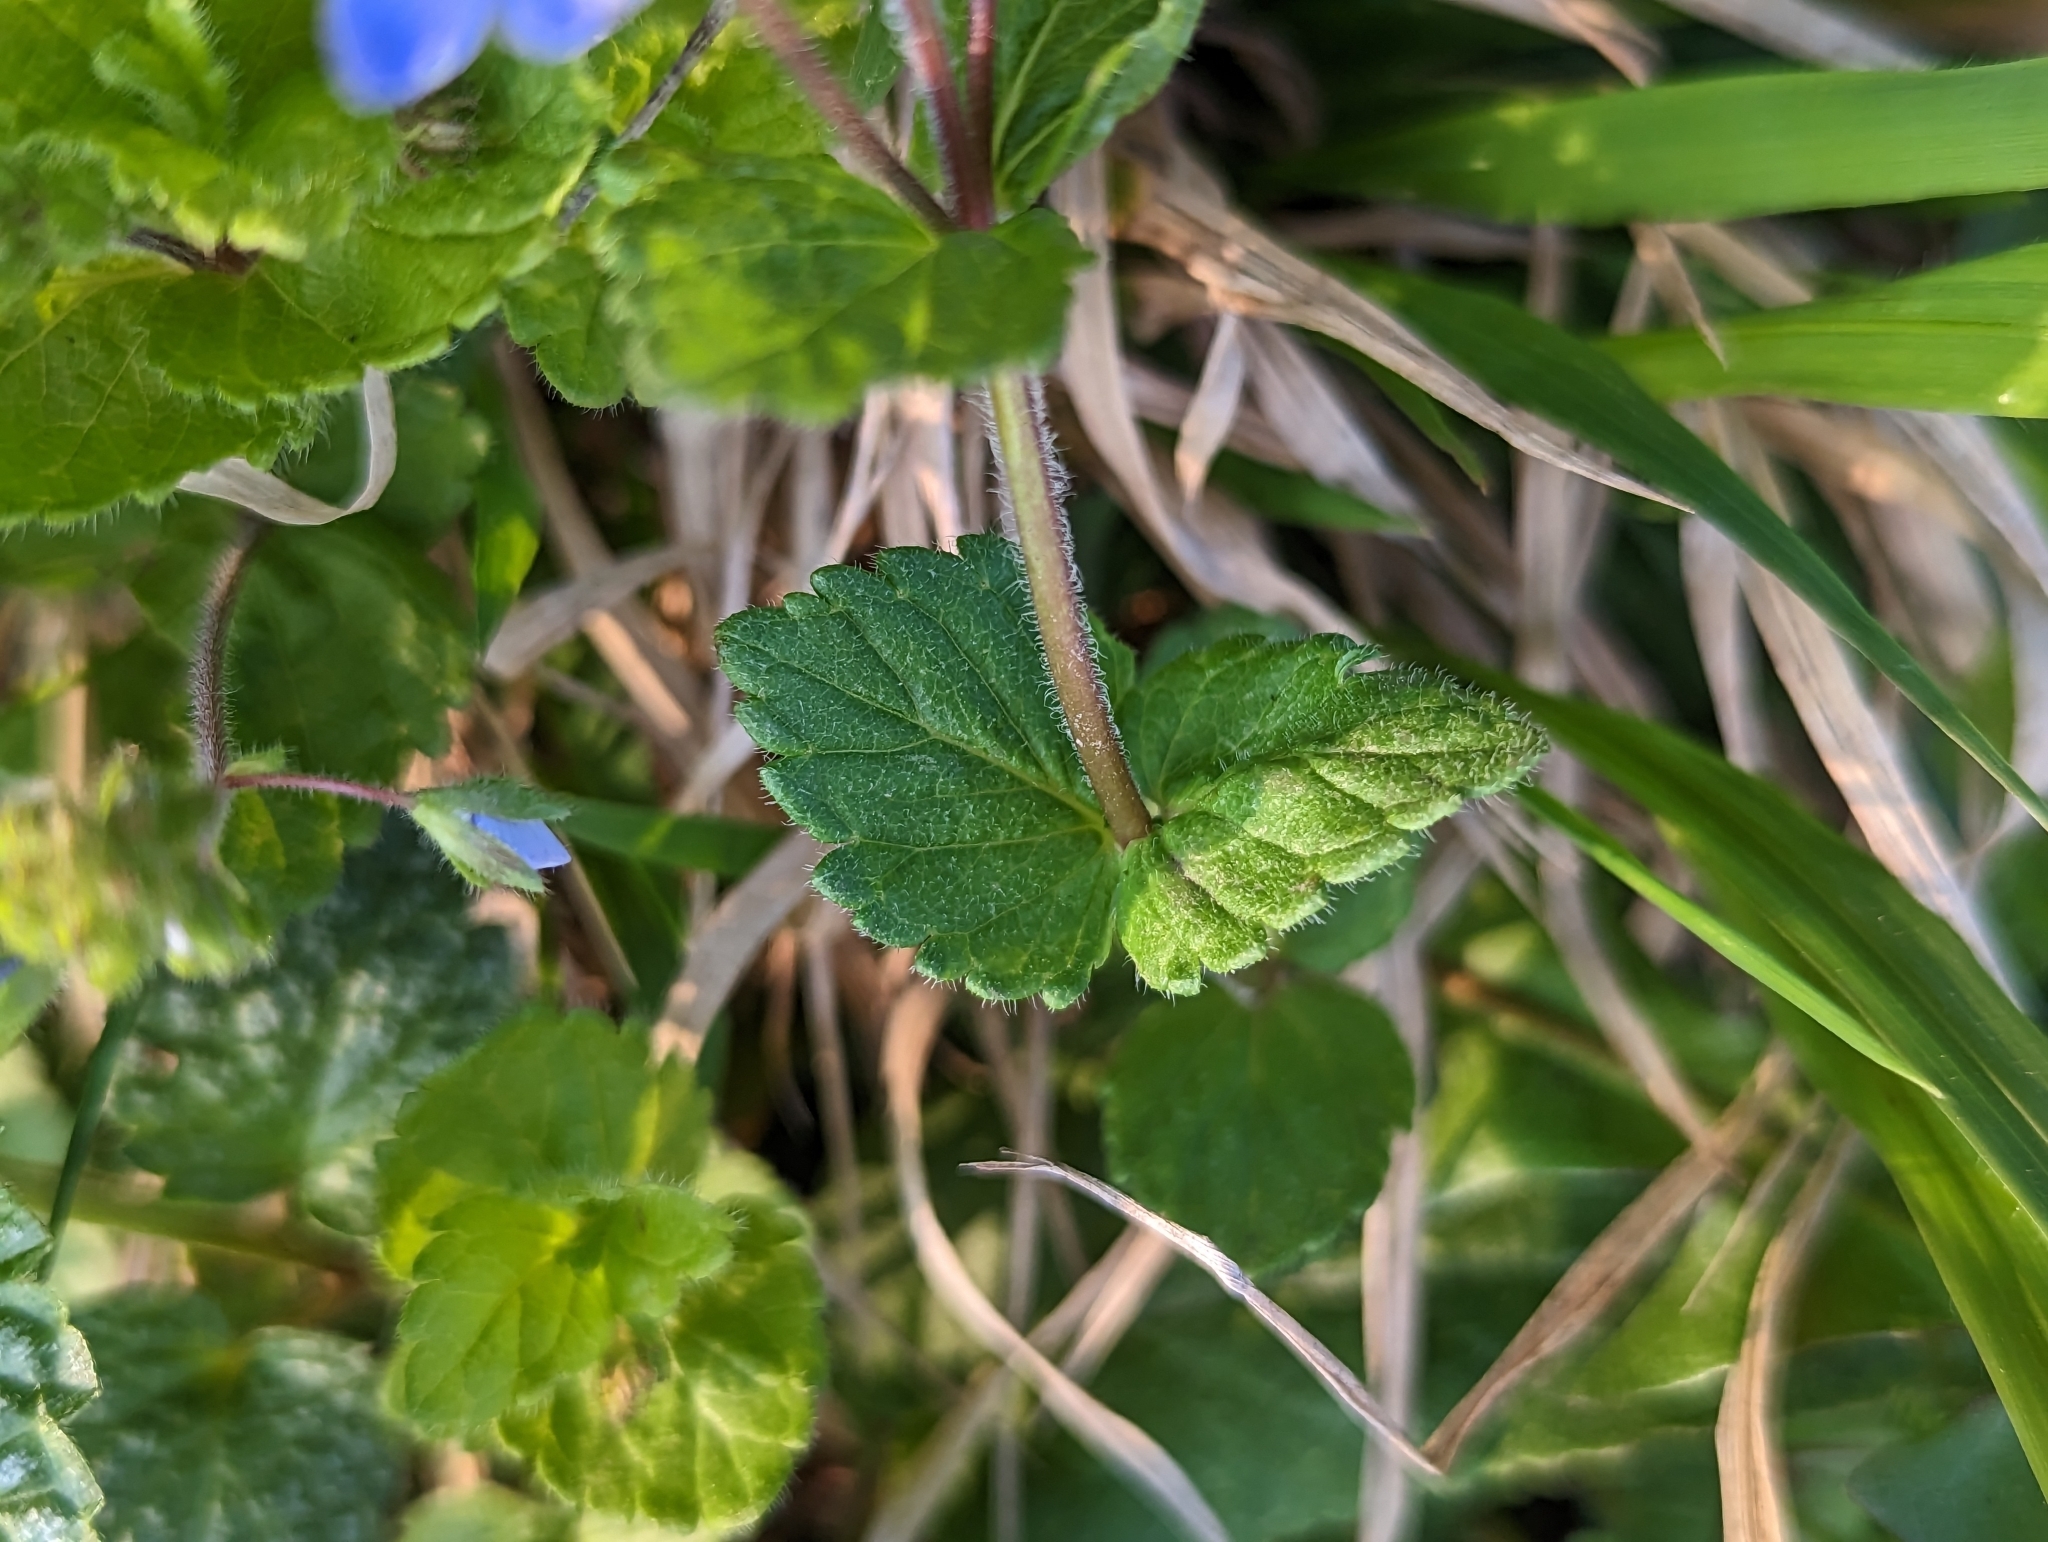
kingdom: Plantae
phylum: Tracheophyta
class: Magnoliopsida
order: Lamiales
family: Plantaginaceae
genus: Veronica
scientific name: Veronica chamaedrys
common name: Germander speedwell
